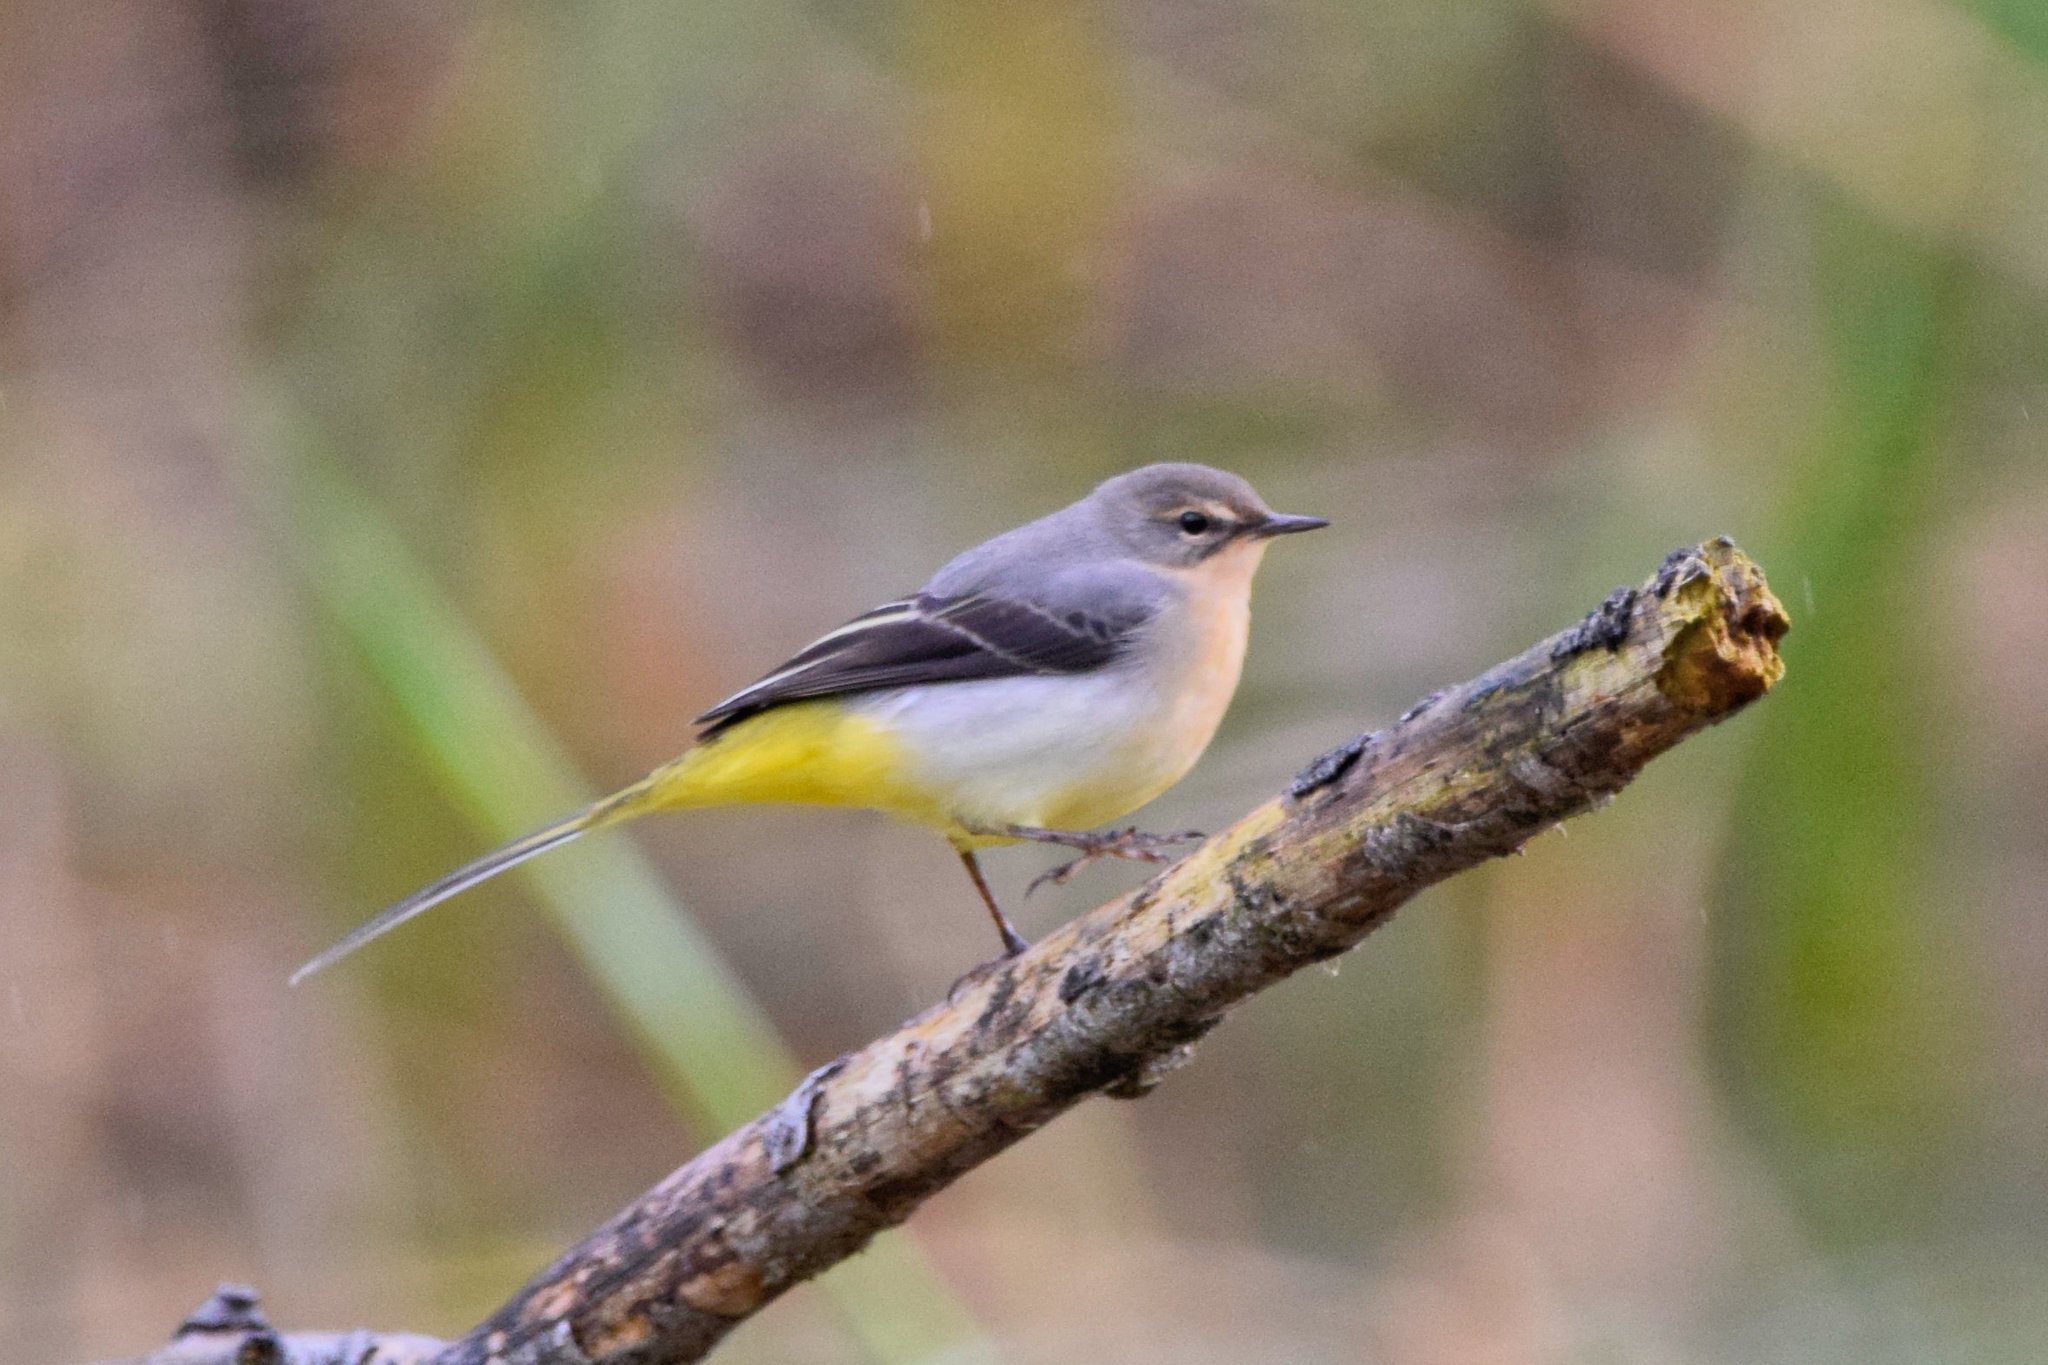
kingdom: Animalia
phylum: Chordata
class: Aves
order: Passeriformes
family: Motacillidae
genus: Motacilla
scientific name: Motacilla cinerea
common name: Grey wagtail
